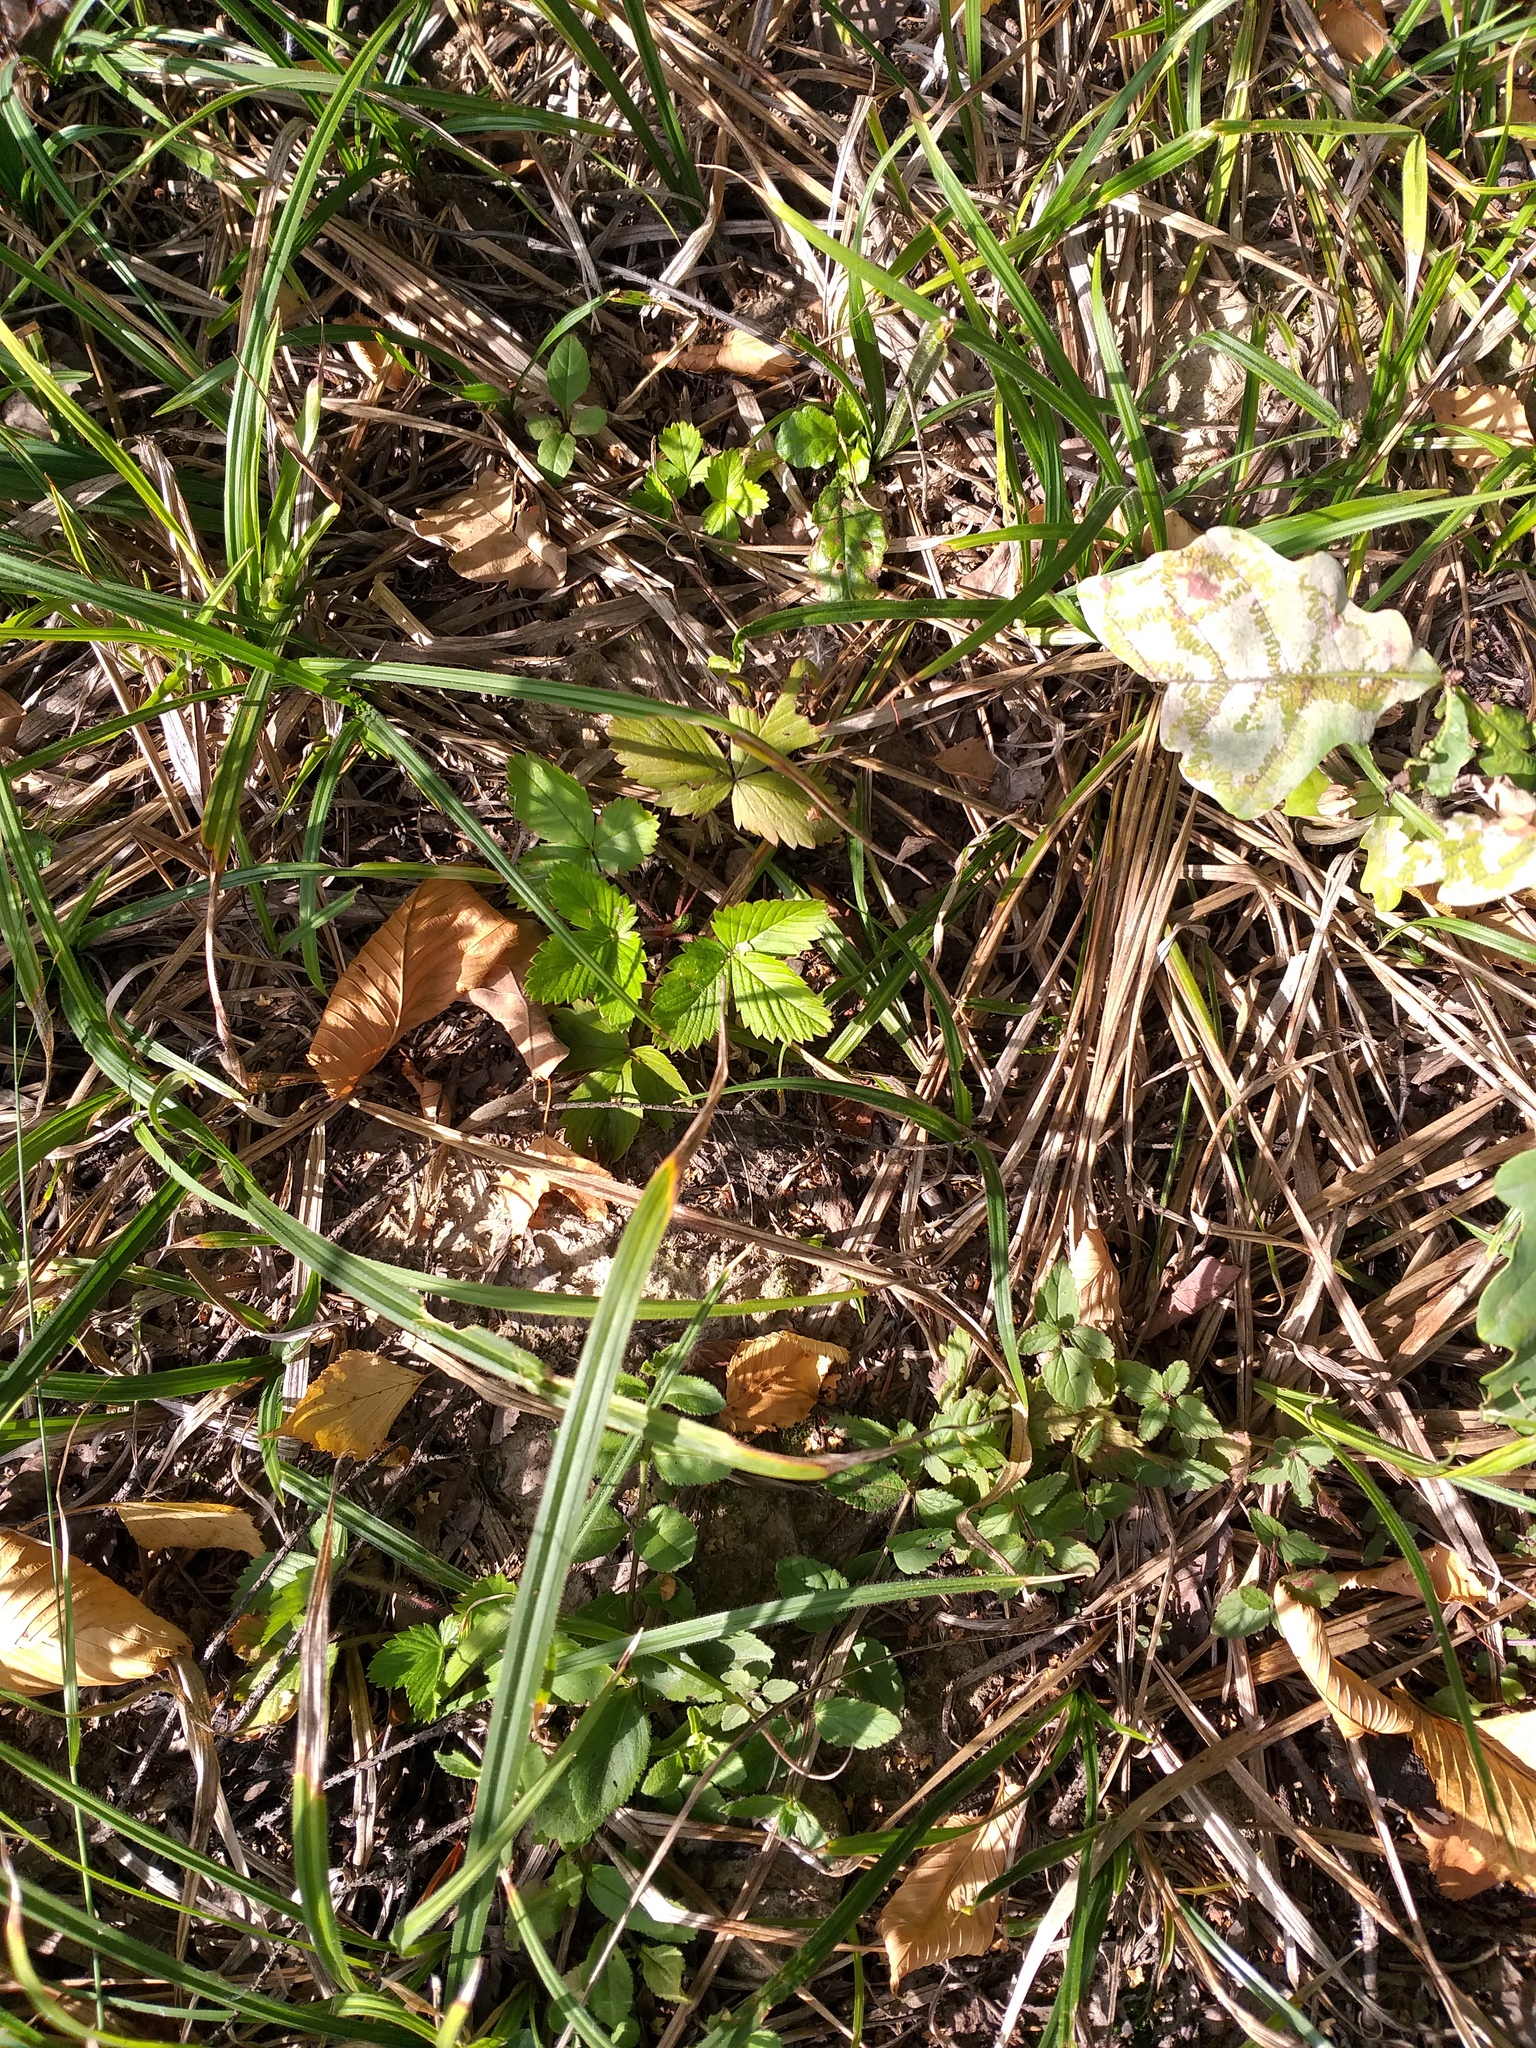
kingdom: Plantae
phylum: Tracheophyta
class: Magnoliopsida
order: Rosales
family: Rosaceae
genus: Fragaria
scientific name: Fragaria vesca
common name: Wild strawberry
